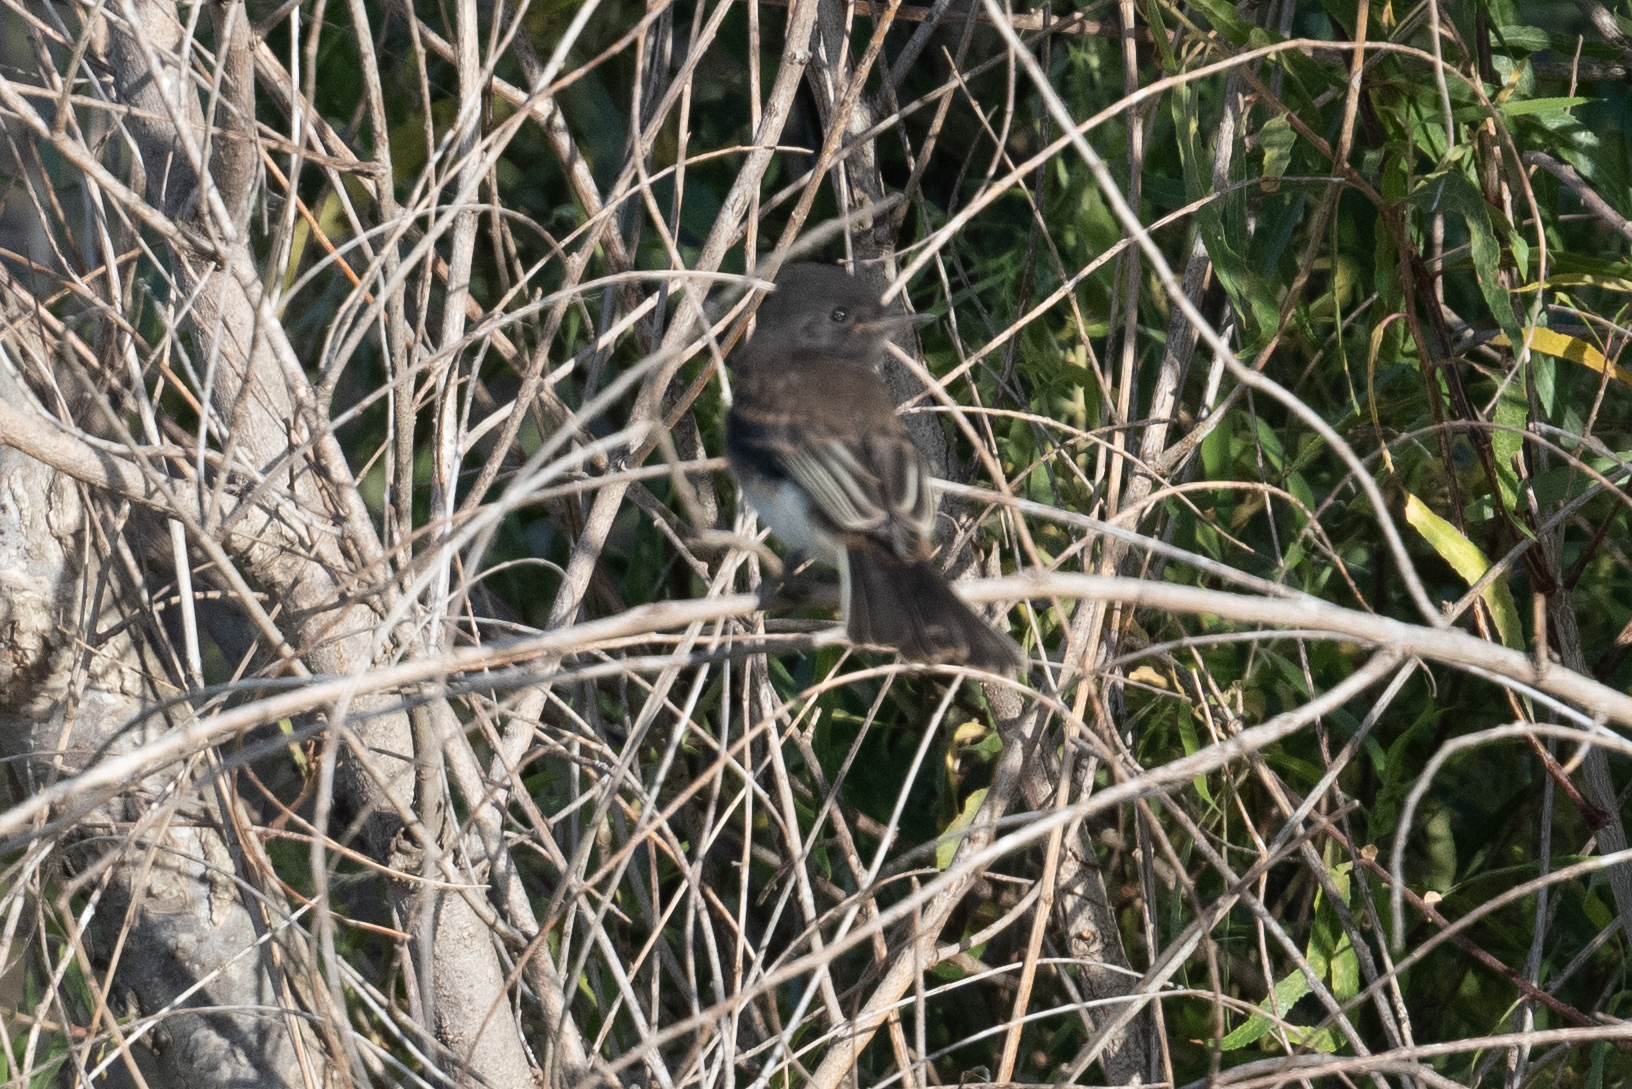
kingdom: Animalia
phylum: Chordata
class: Aves
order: Passeriformes
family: Tyrannidae
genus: Sayornis
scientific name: Sayornis nigricans
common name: Black phoebe
